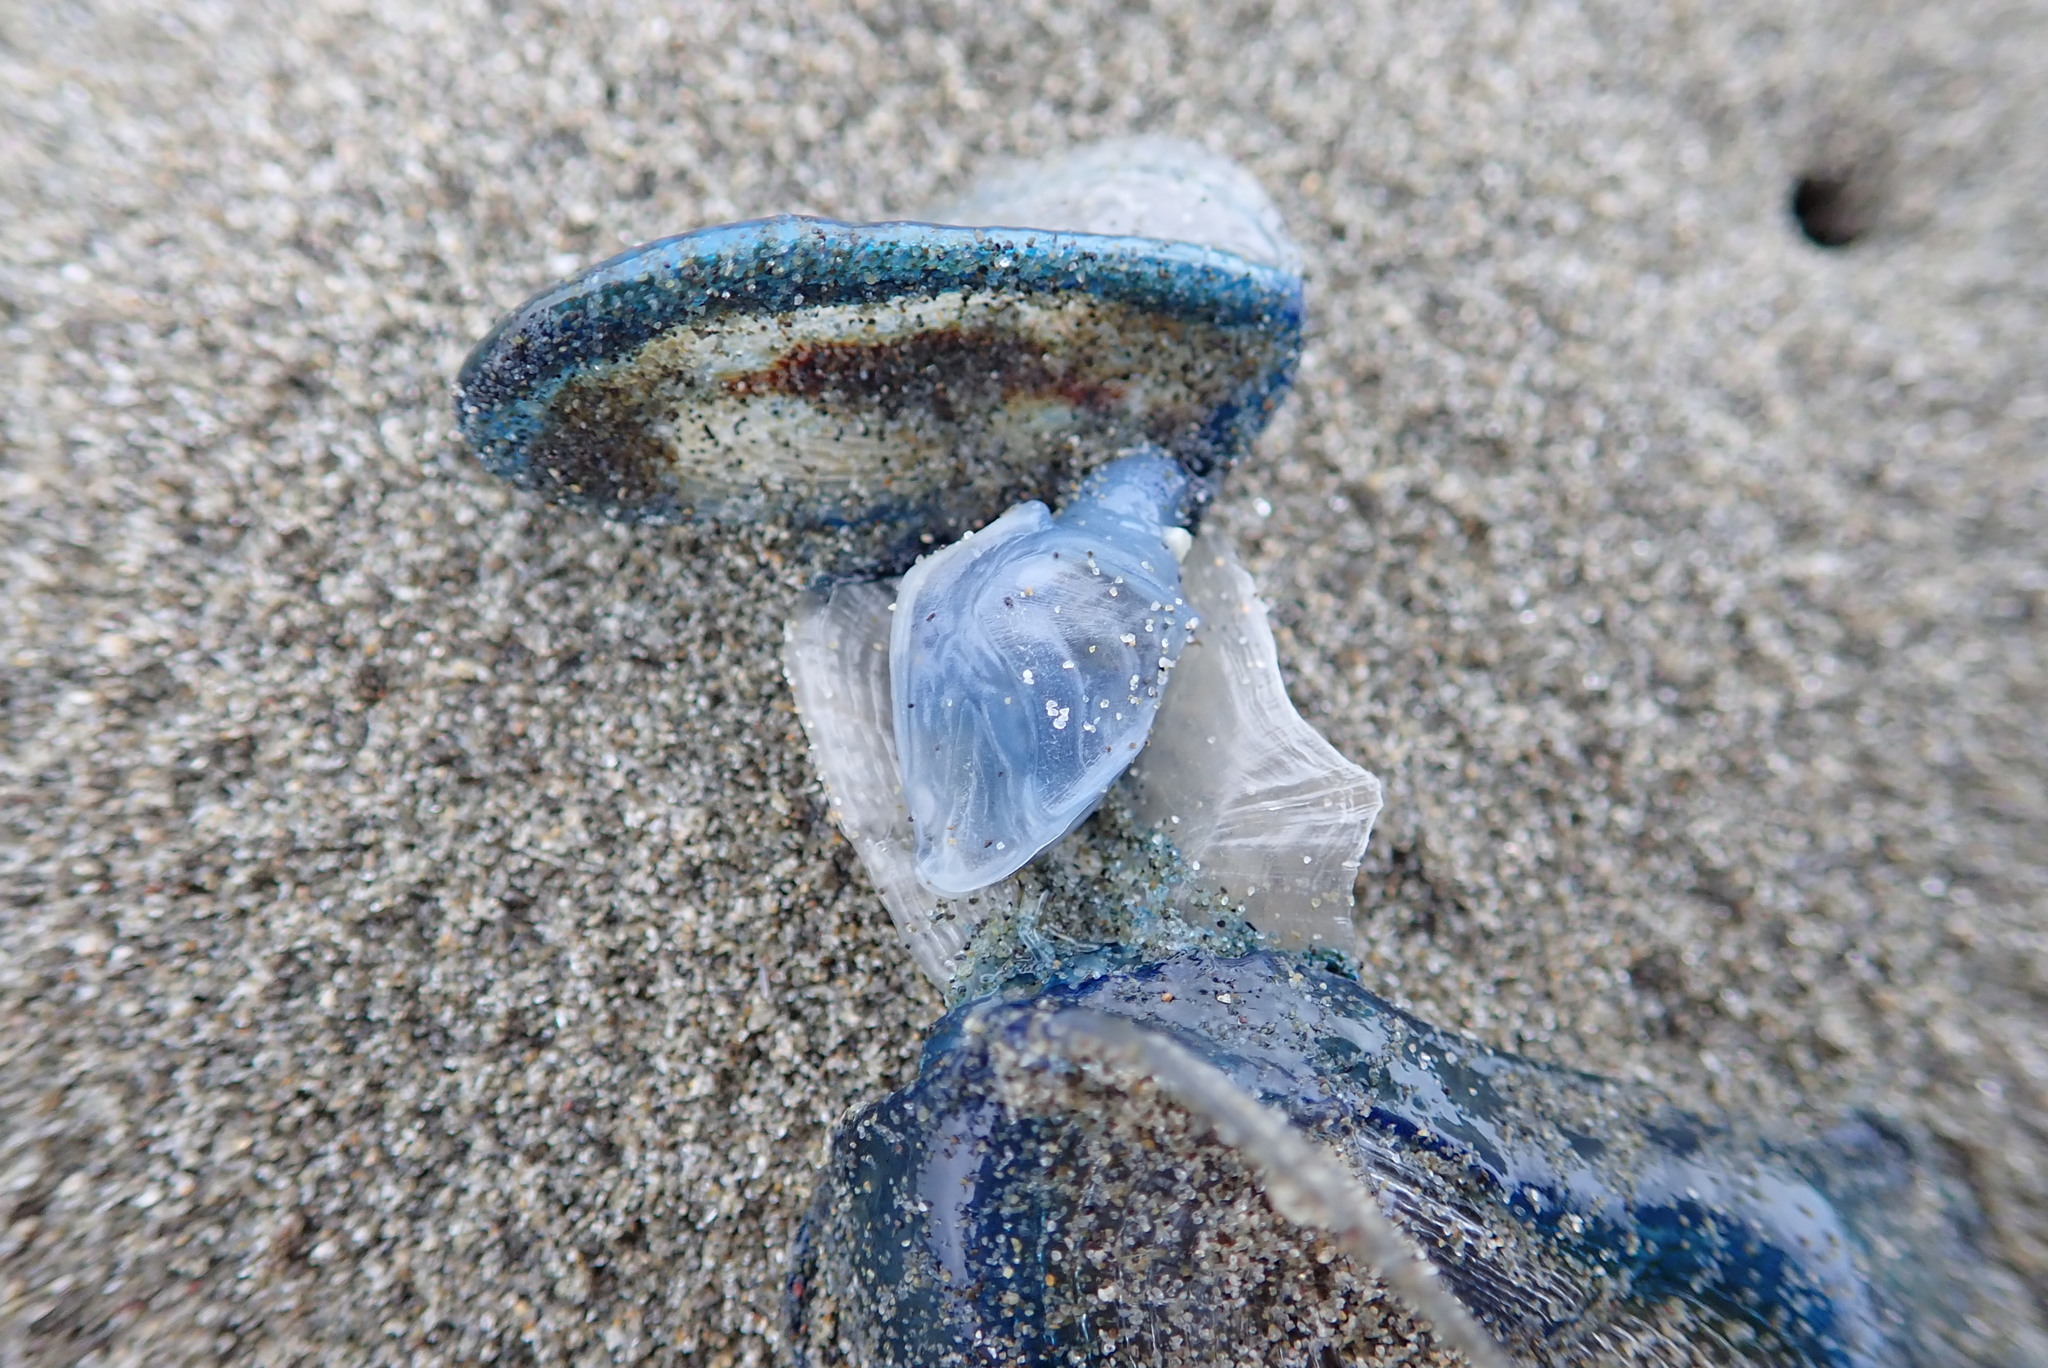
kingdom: Animalia
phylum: Arthropoda
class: Maxillopoda
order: Pedunculata
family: Lepadidae
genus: Dosima
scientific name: Dosima fascicularis
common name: Buoy barnacle
